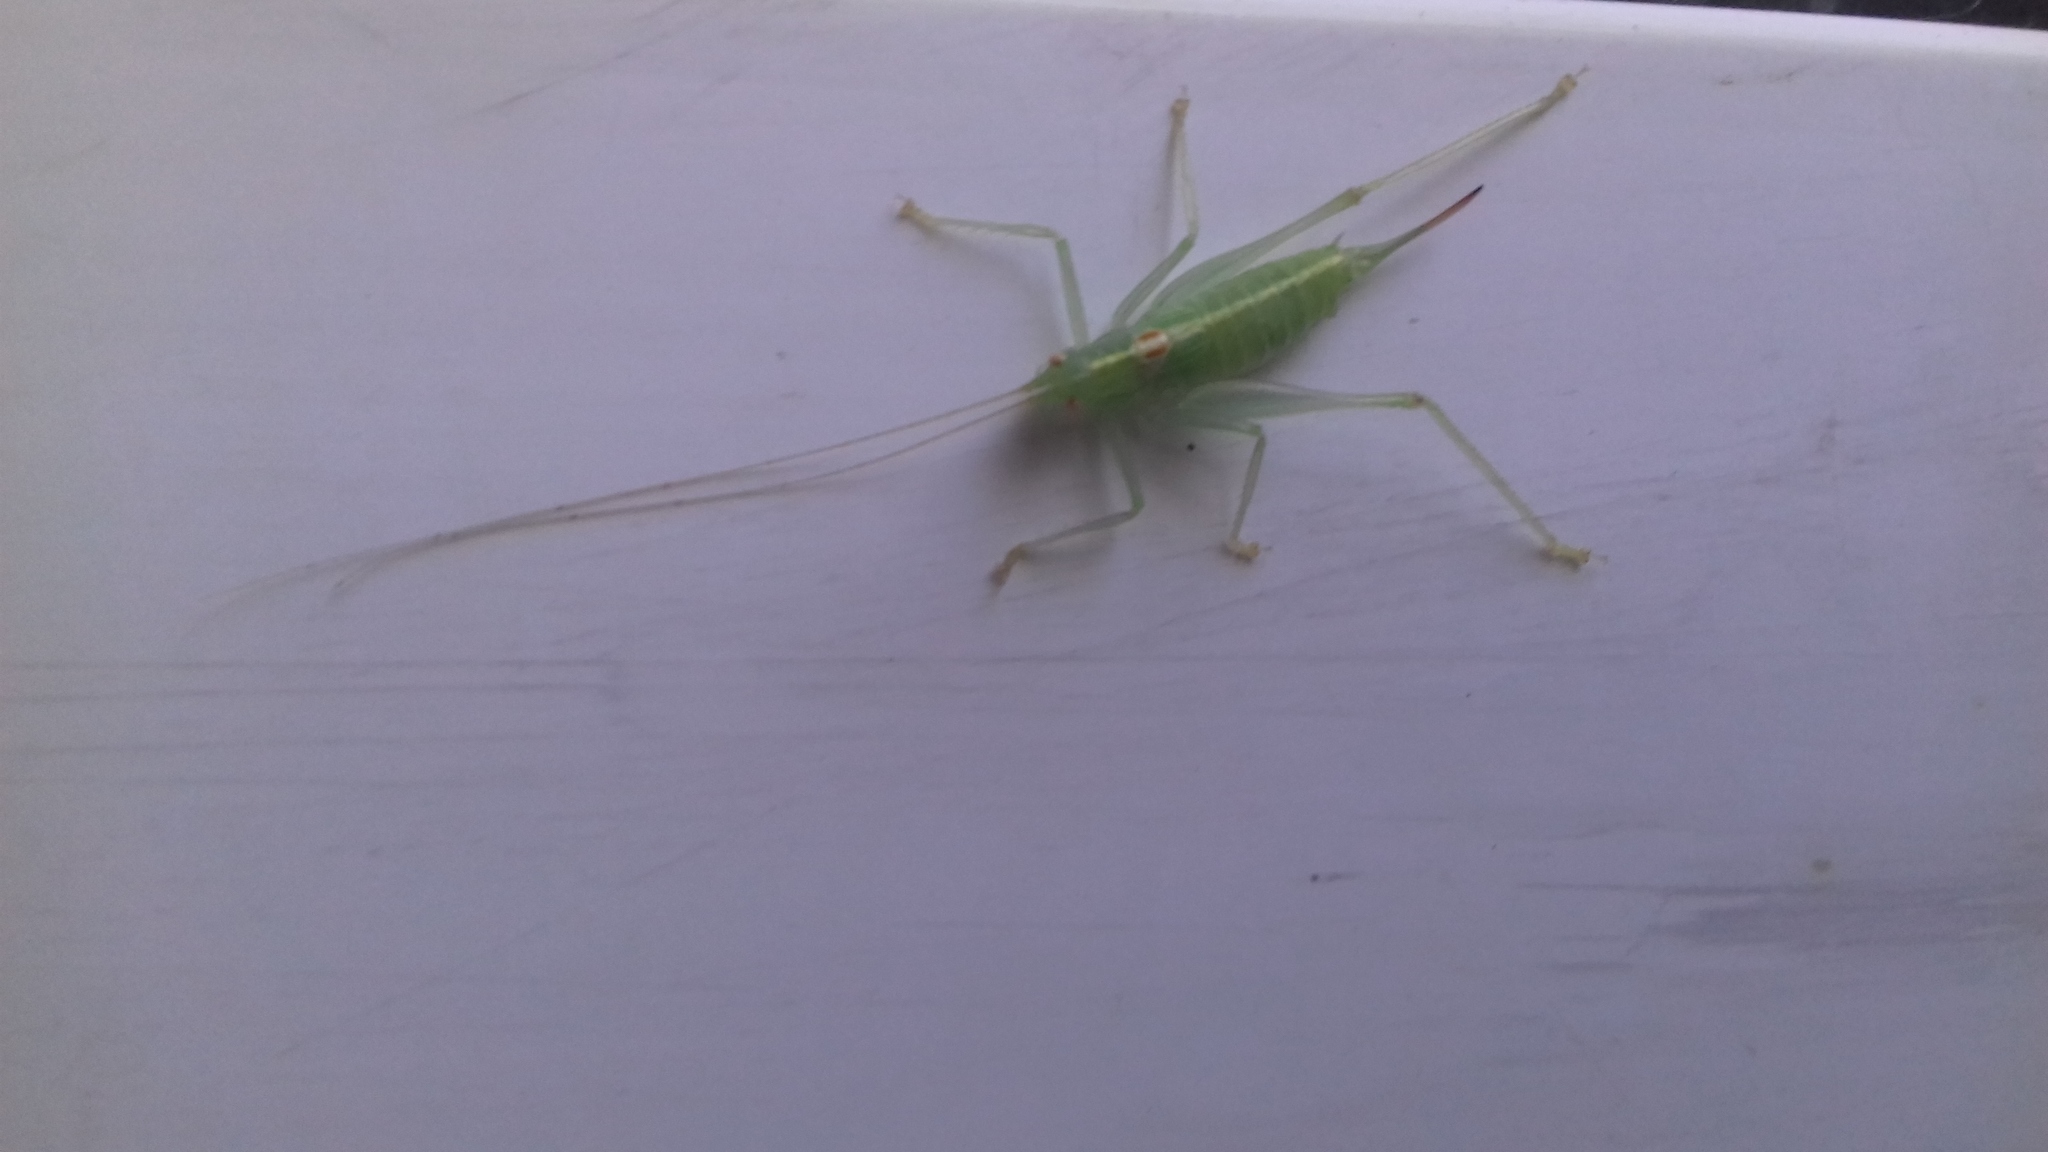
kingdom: Animalia
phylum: Arthropoda
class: Insecta
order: Orthoptera
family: Tettigoniidae
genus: Meconema
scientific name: Meconema meridionale
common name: Southern oak bush-cricket
